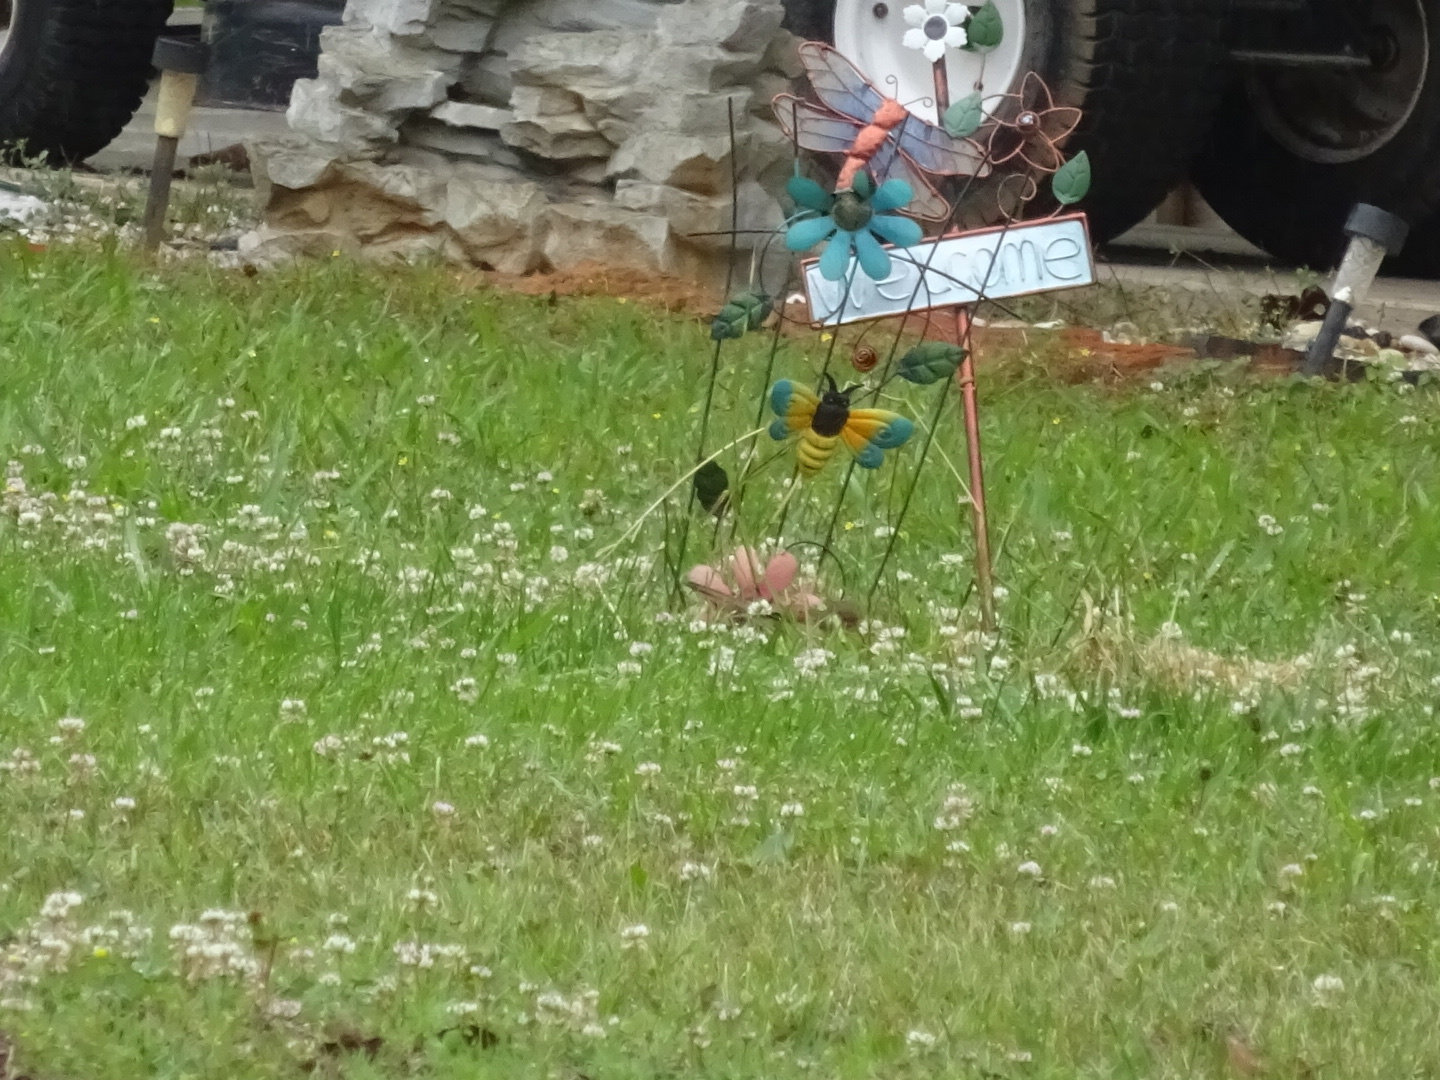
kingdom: Animalia
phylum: Chordata
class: Aves
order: Passeriformes
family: Cardinalidae
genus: Cardinalis
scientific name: Cardinalis cardinalis
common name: Northern cardinal
